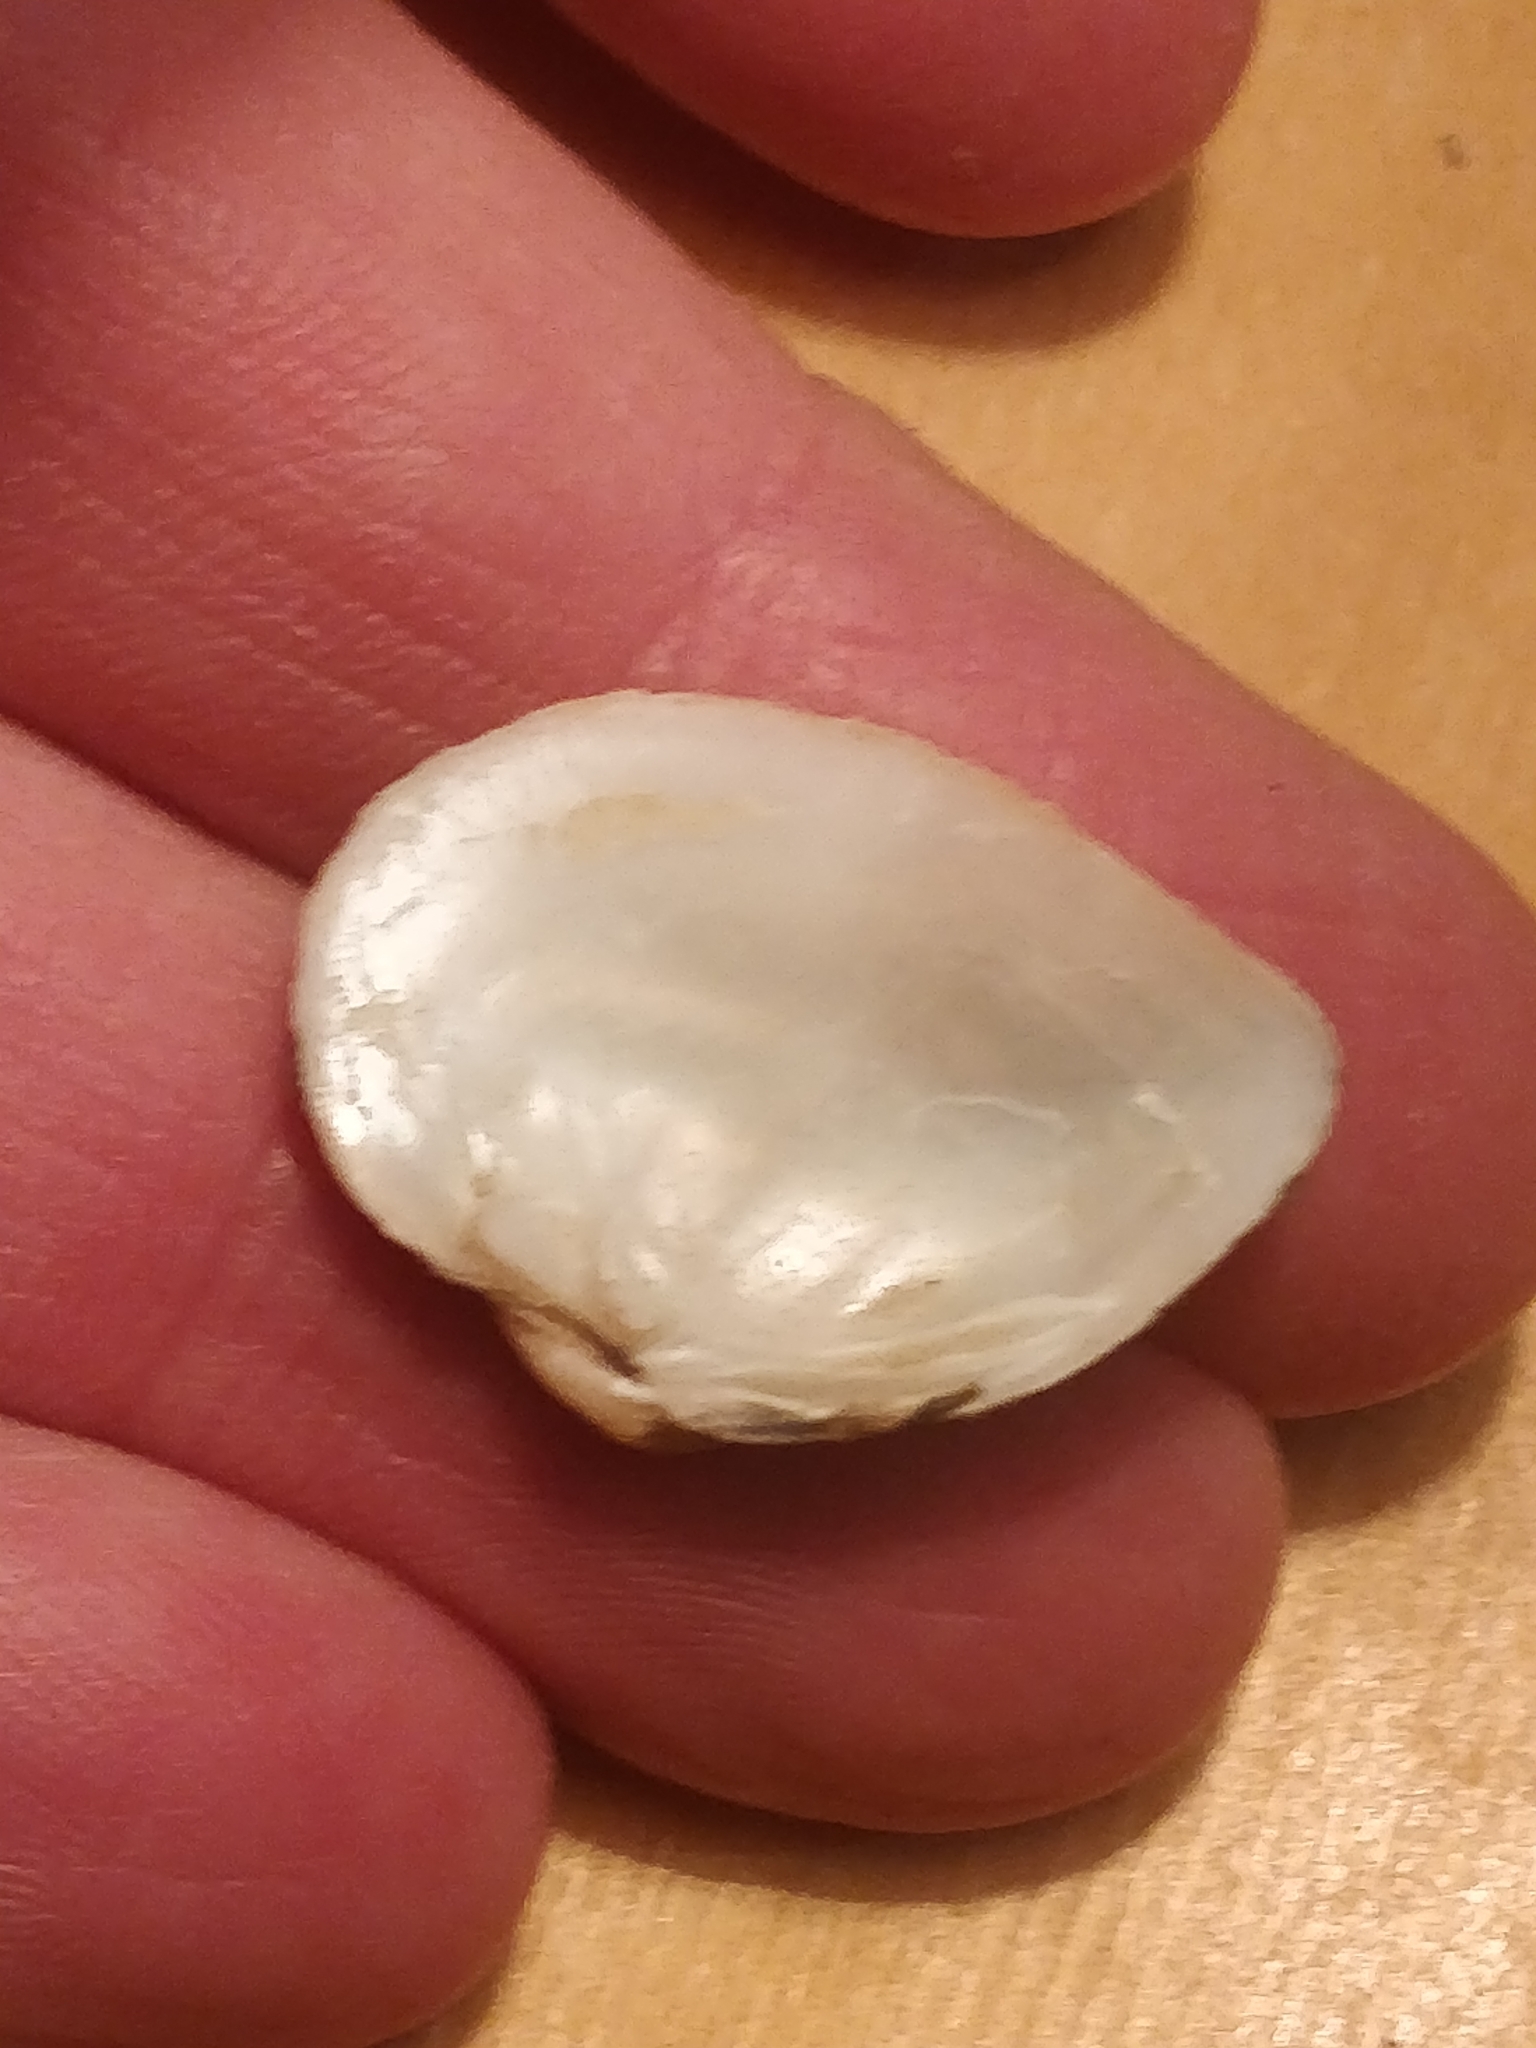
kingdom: Animalia
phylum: Mollusca
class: Bivalvia
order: Unionida
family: Unionidae
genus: Truncilla
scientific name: Truncilla truncata
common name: Deertoe
